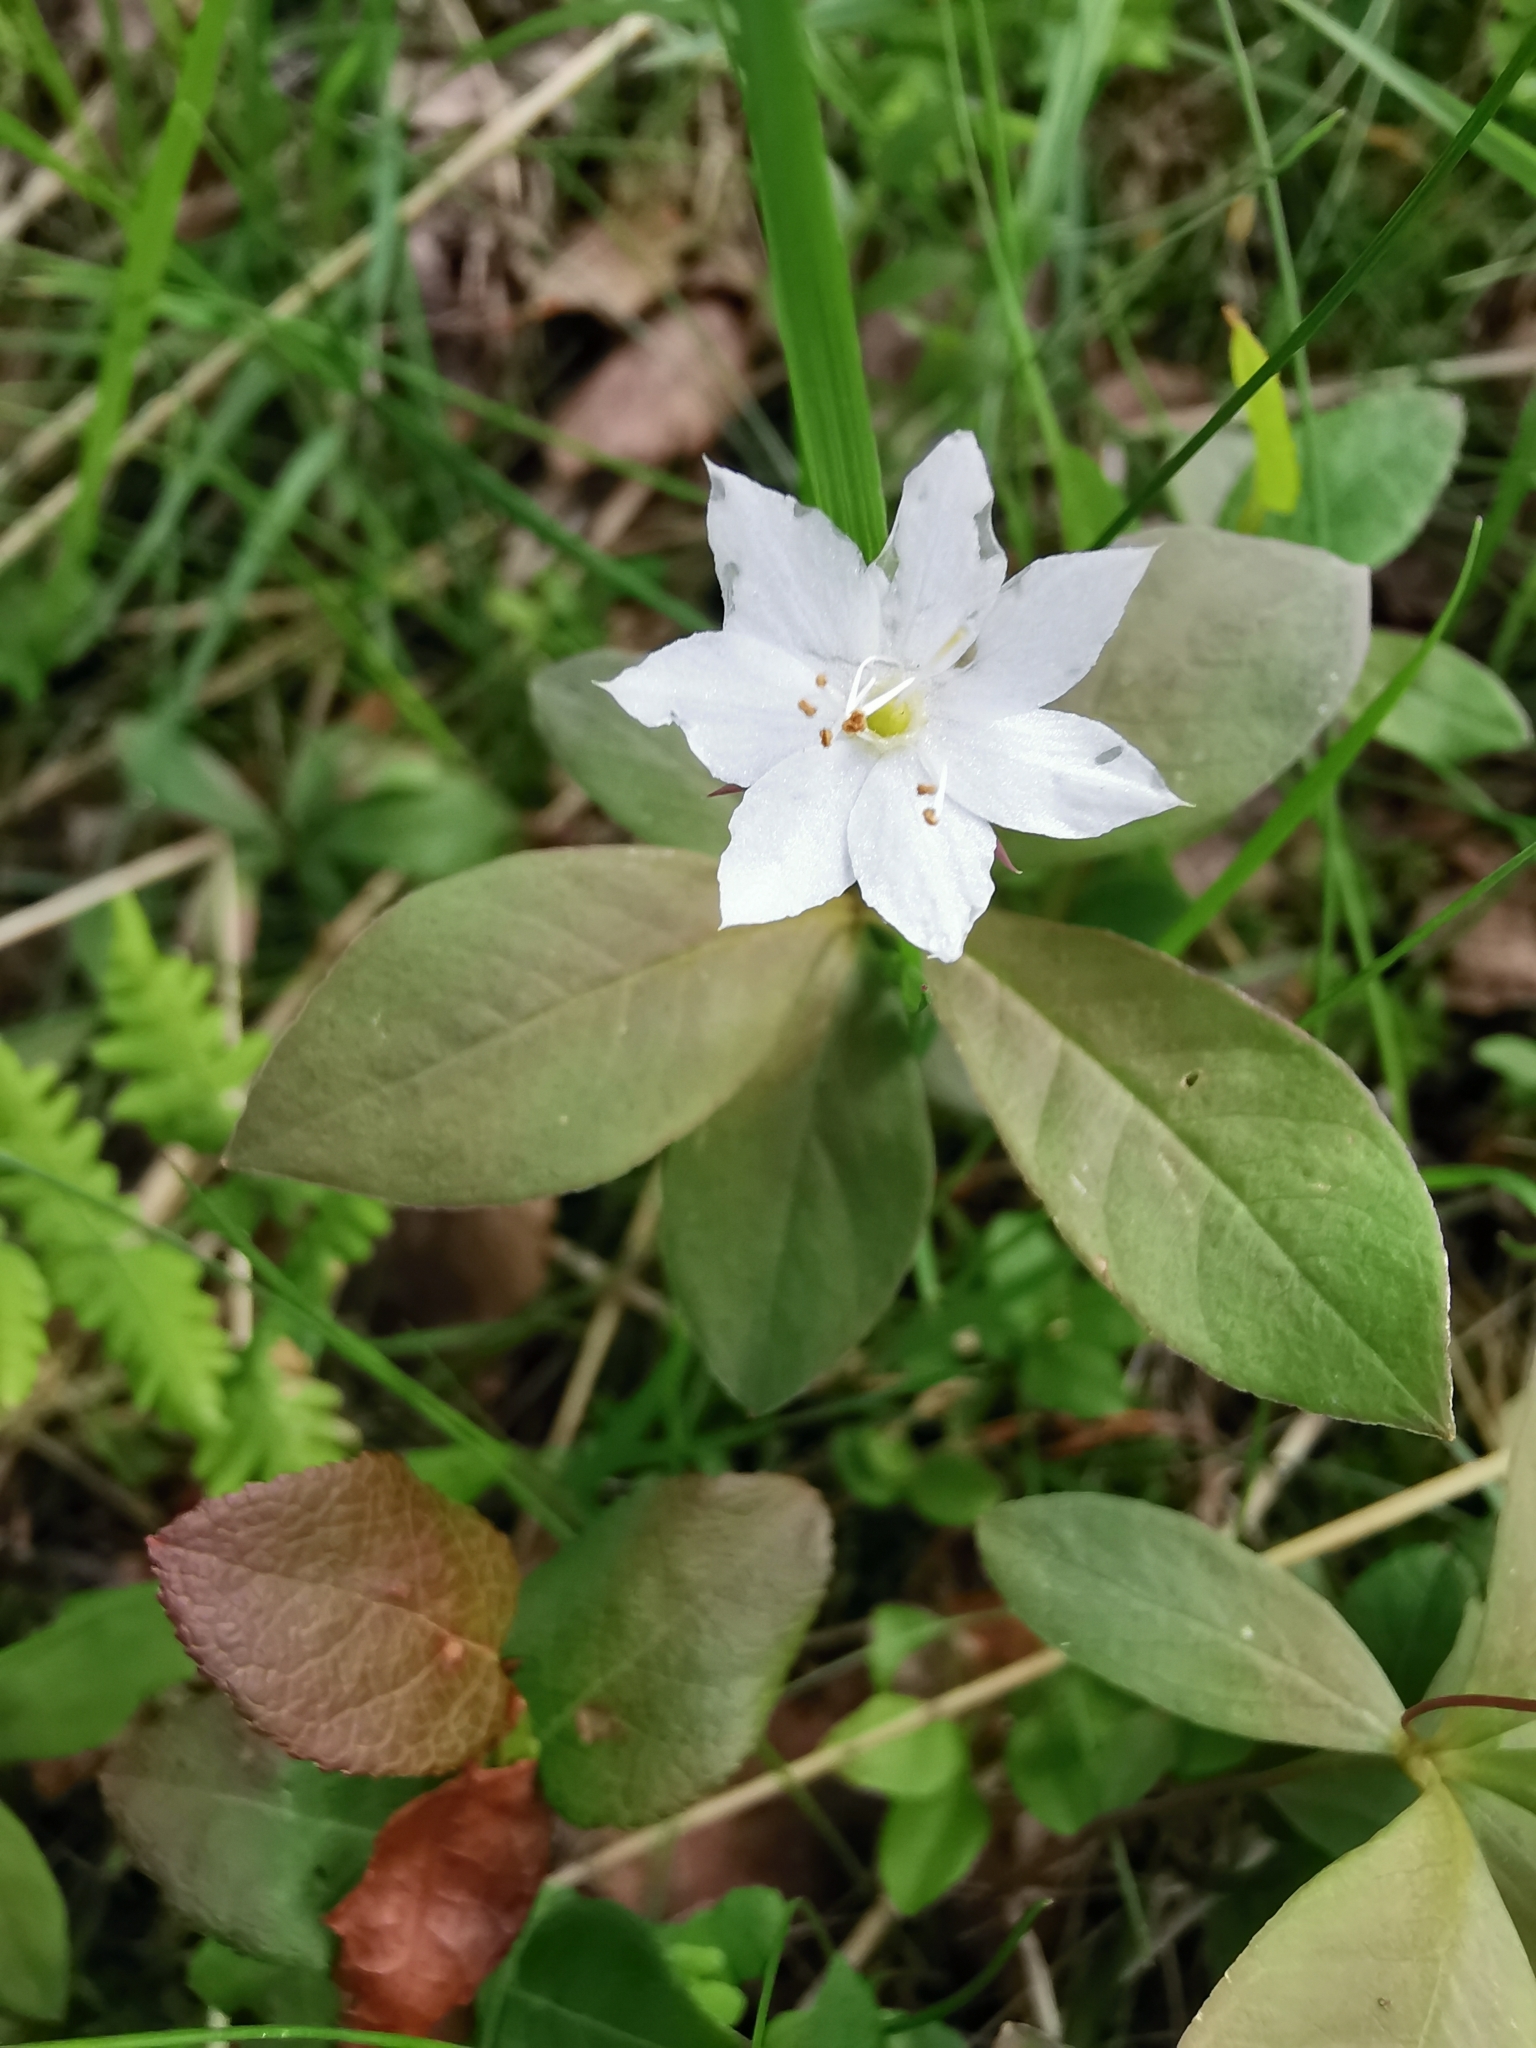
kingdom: Plantae
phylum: Tracheophyta
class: Magnoliopsida
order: Ericales
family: Primulaceae
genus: Lysimachia
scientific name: Lysimachia europaea
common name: Arctic starflower
